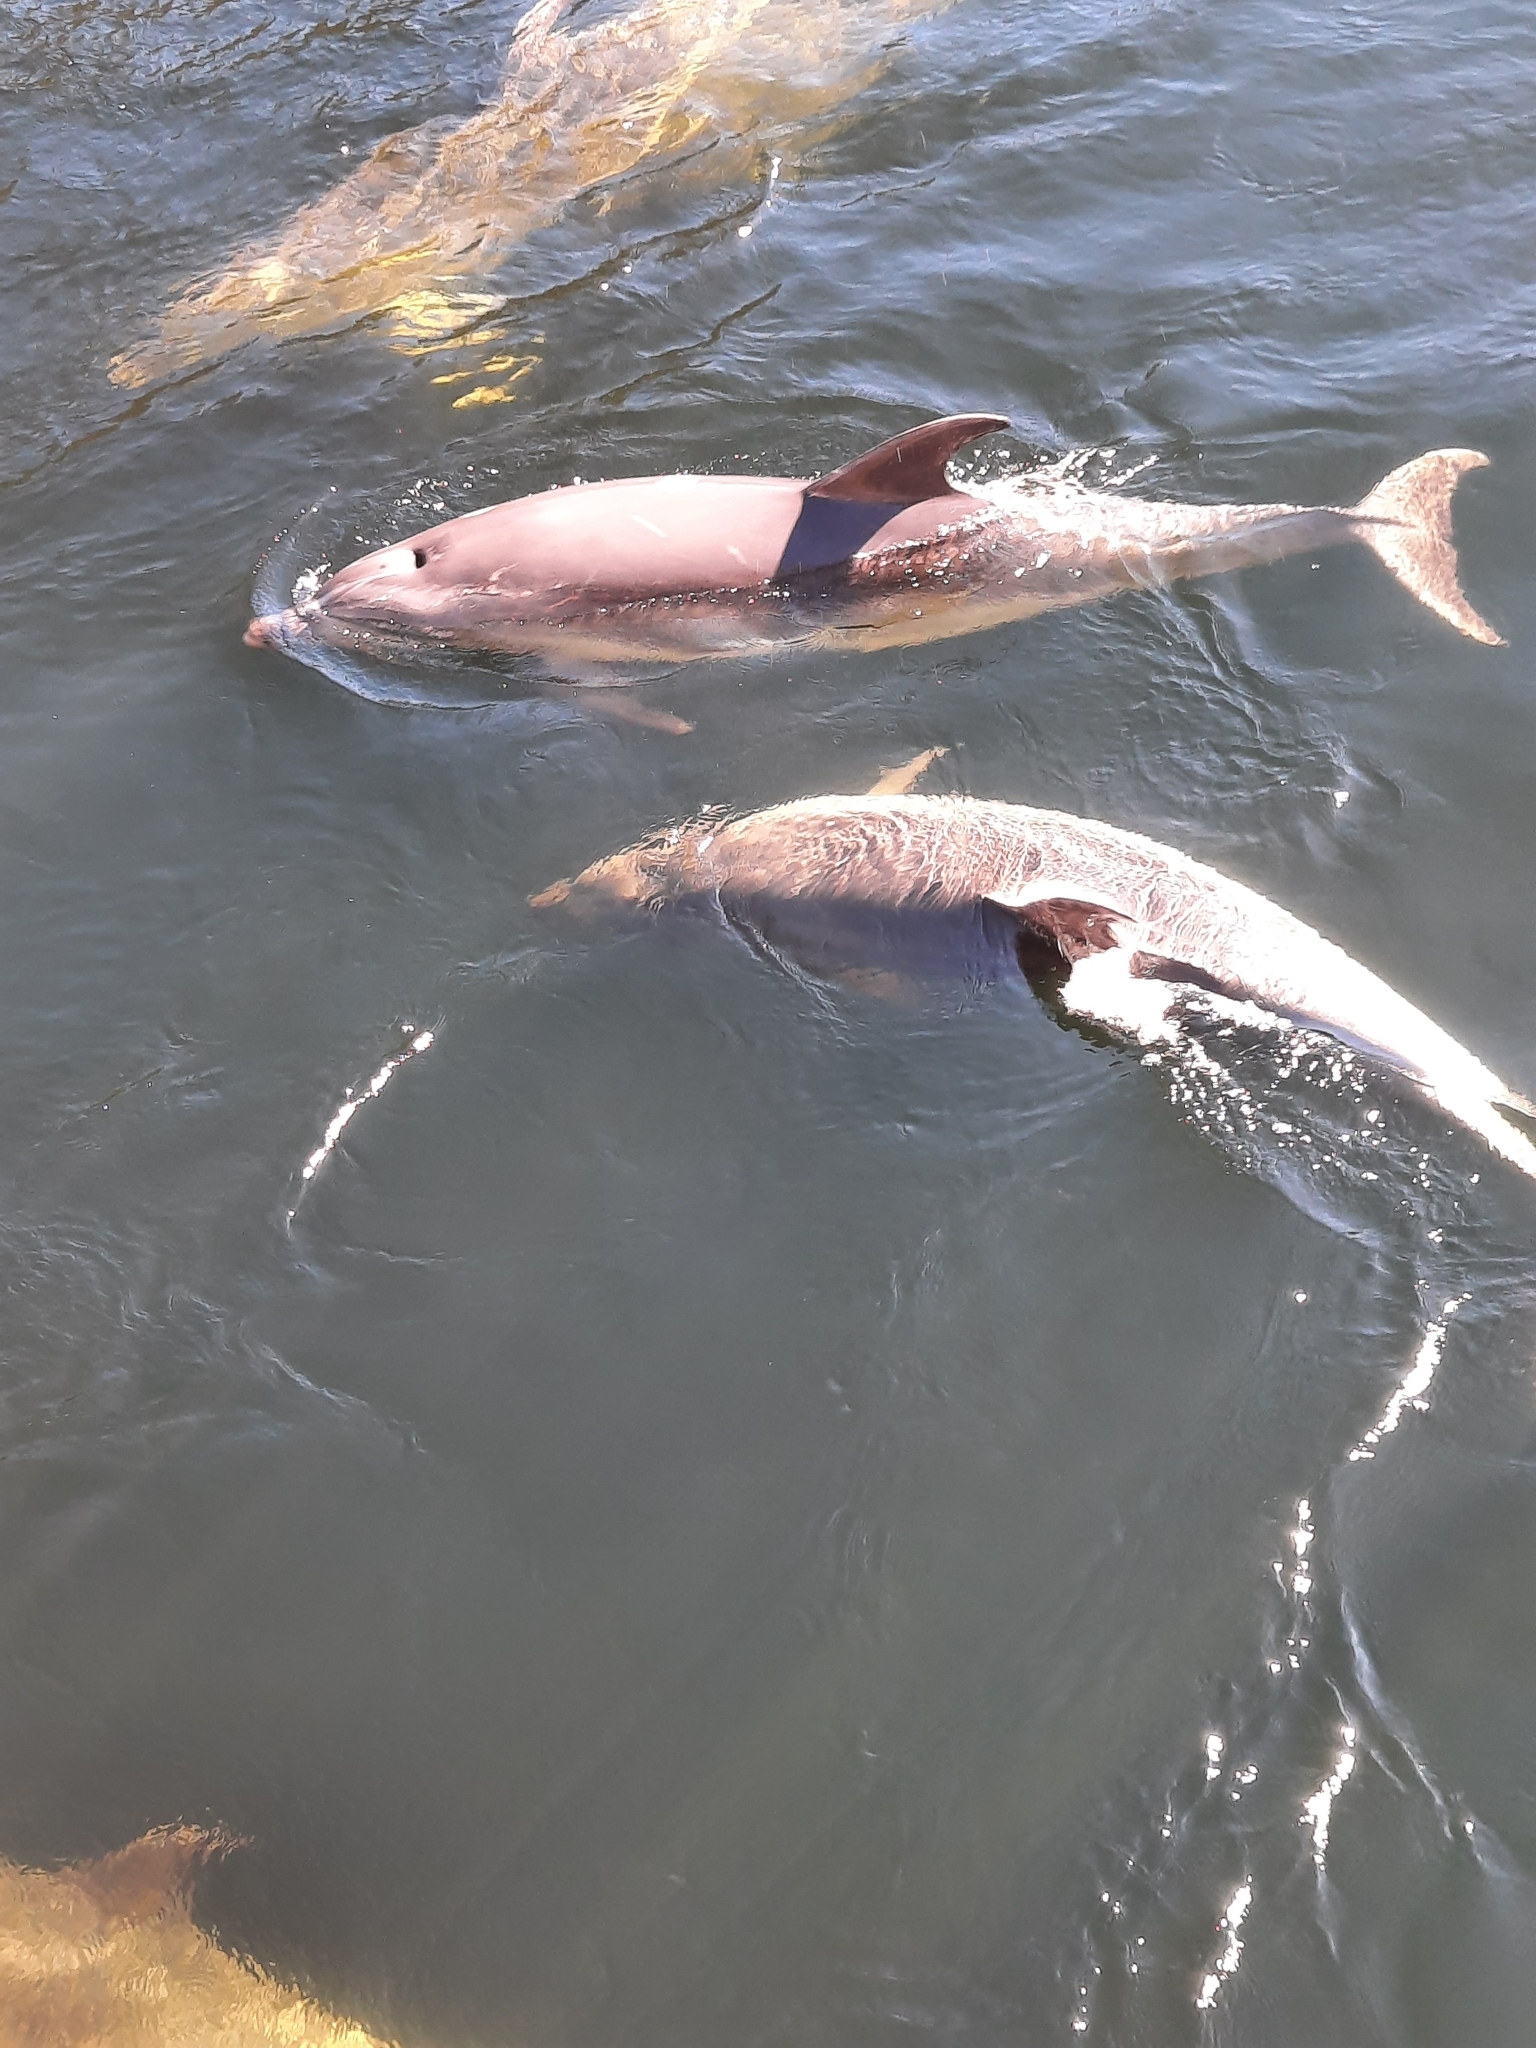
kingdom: Animalia
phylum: Chordata
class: Mammalia
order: Cetacea
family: Delphinidae
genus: Tursiops
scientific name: Tursiops truncatus
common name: Bottlenose dolphin
